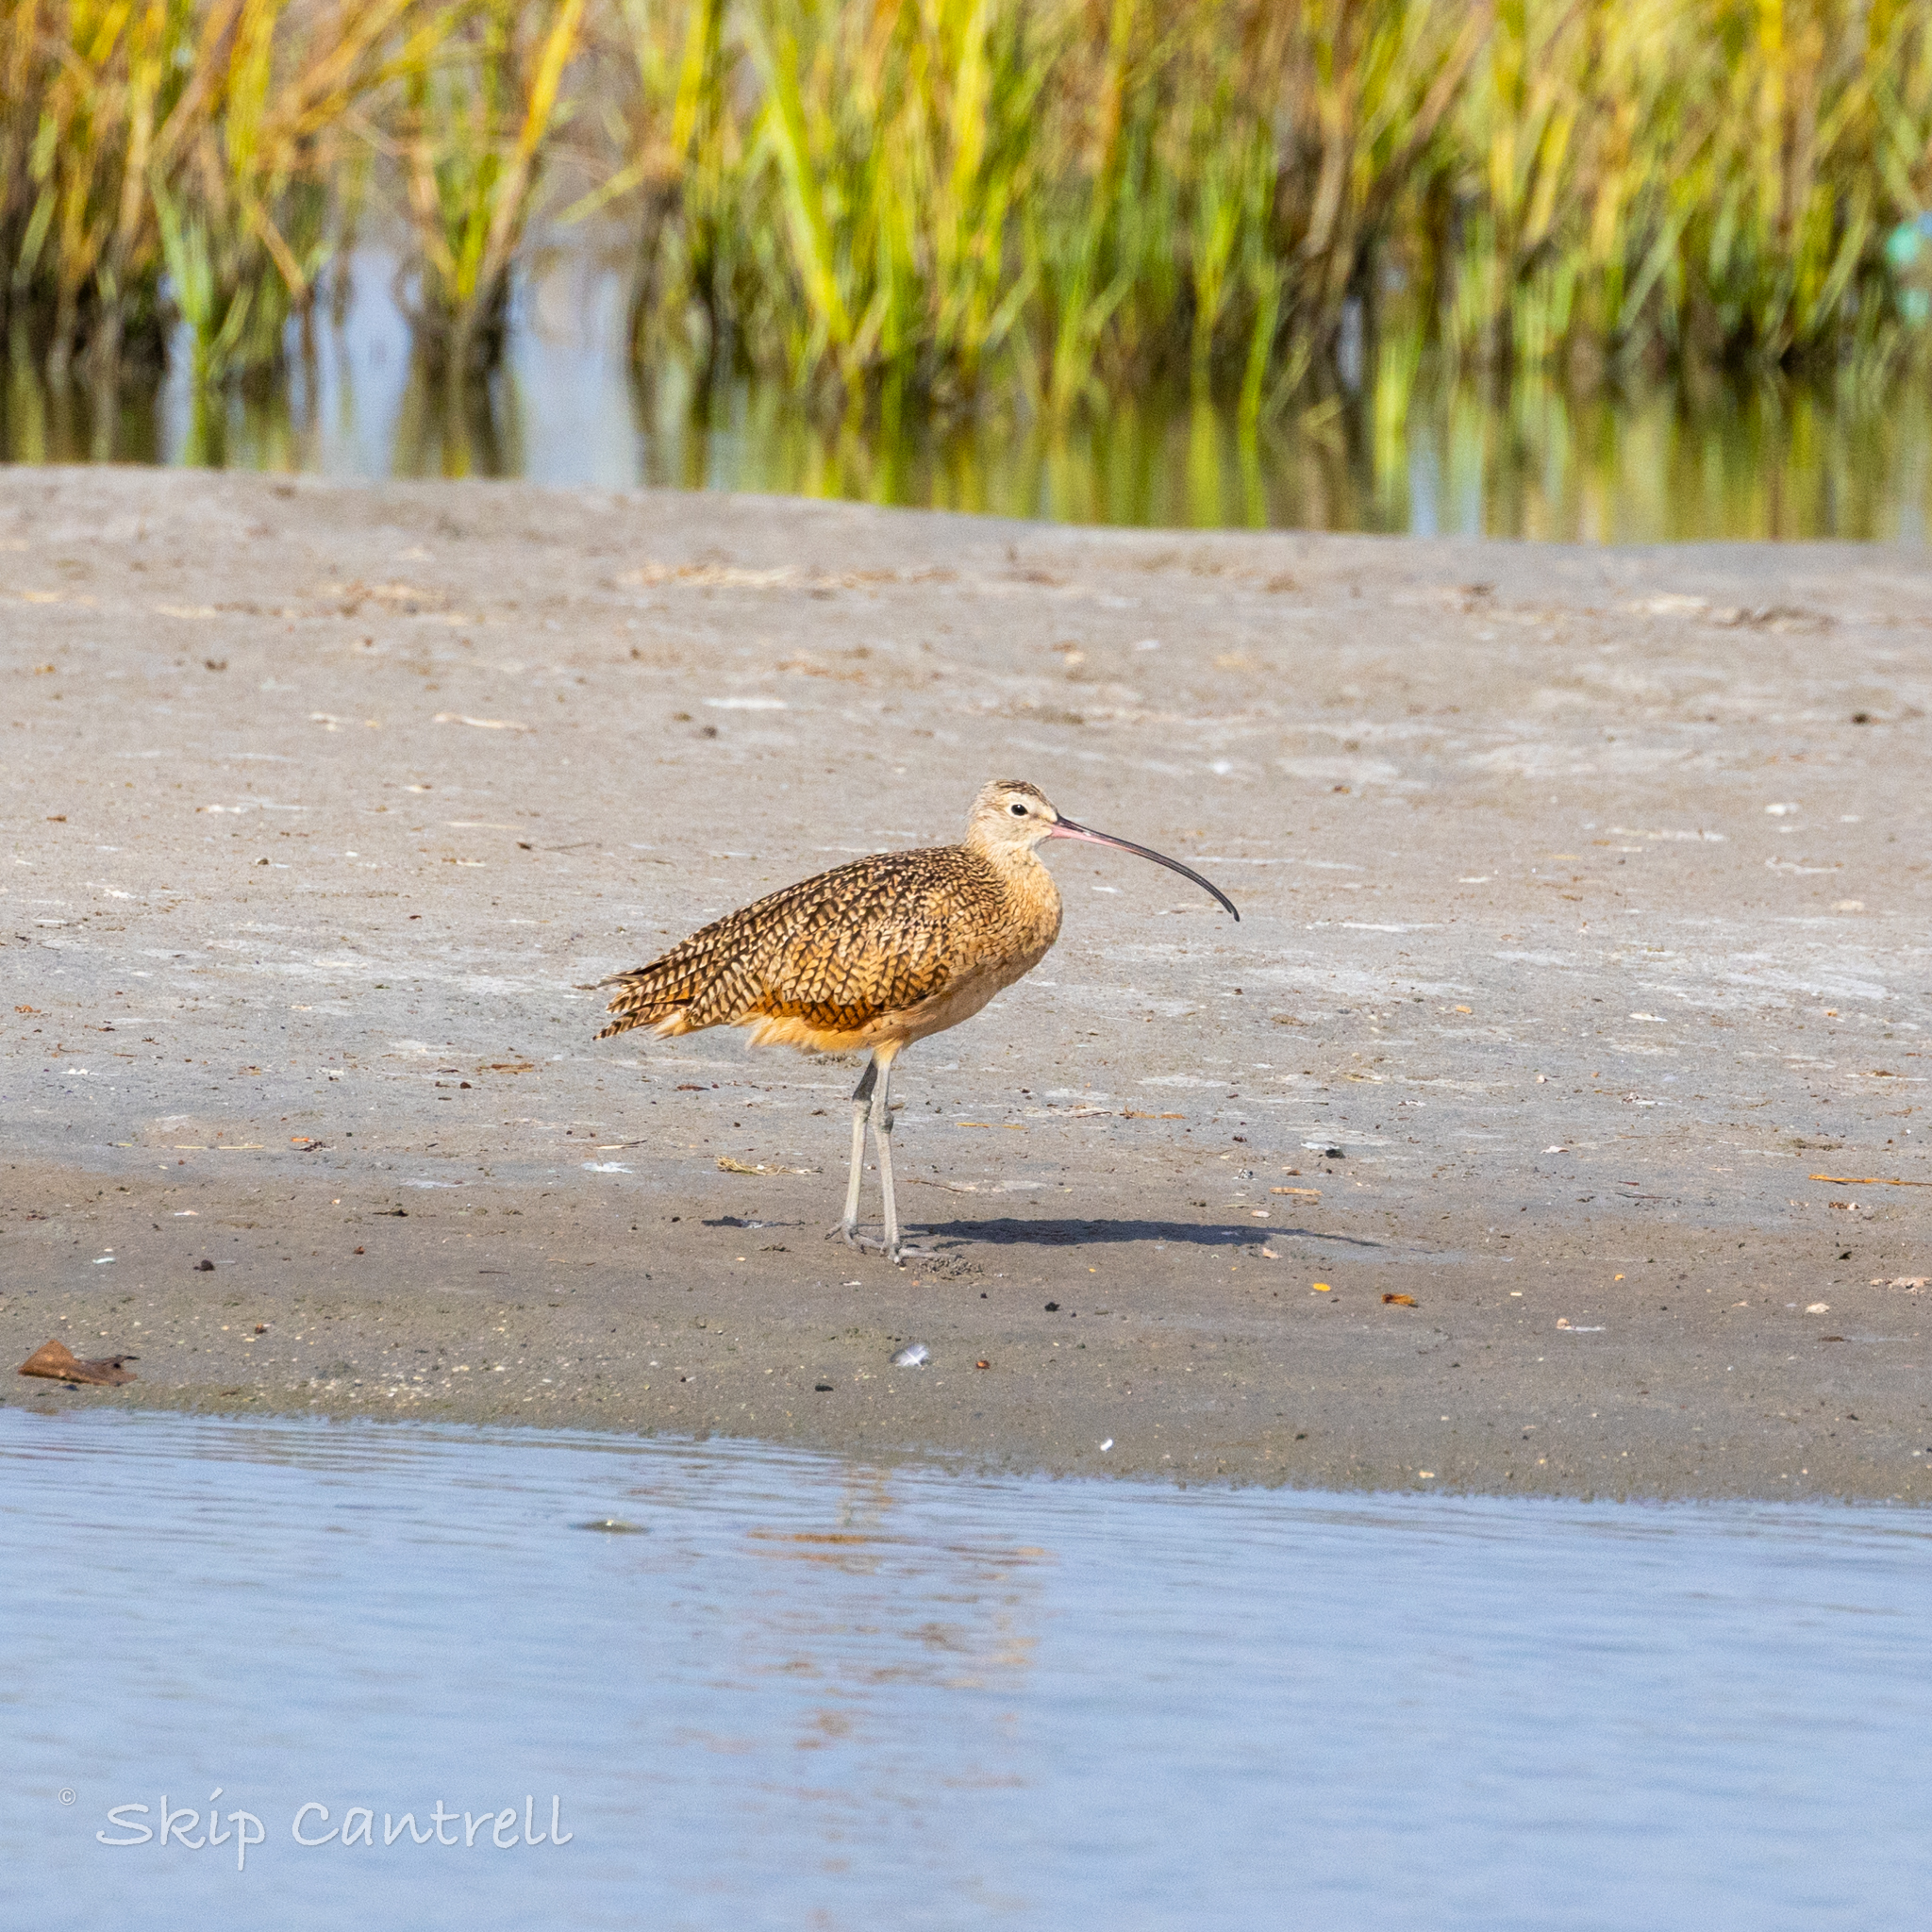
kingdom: Animalia
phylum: Chordata
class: Aves
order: Charadriiformes
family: Scolopacidae
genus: Numenius
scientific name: Numenius americanus
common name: Long-billed curlew
